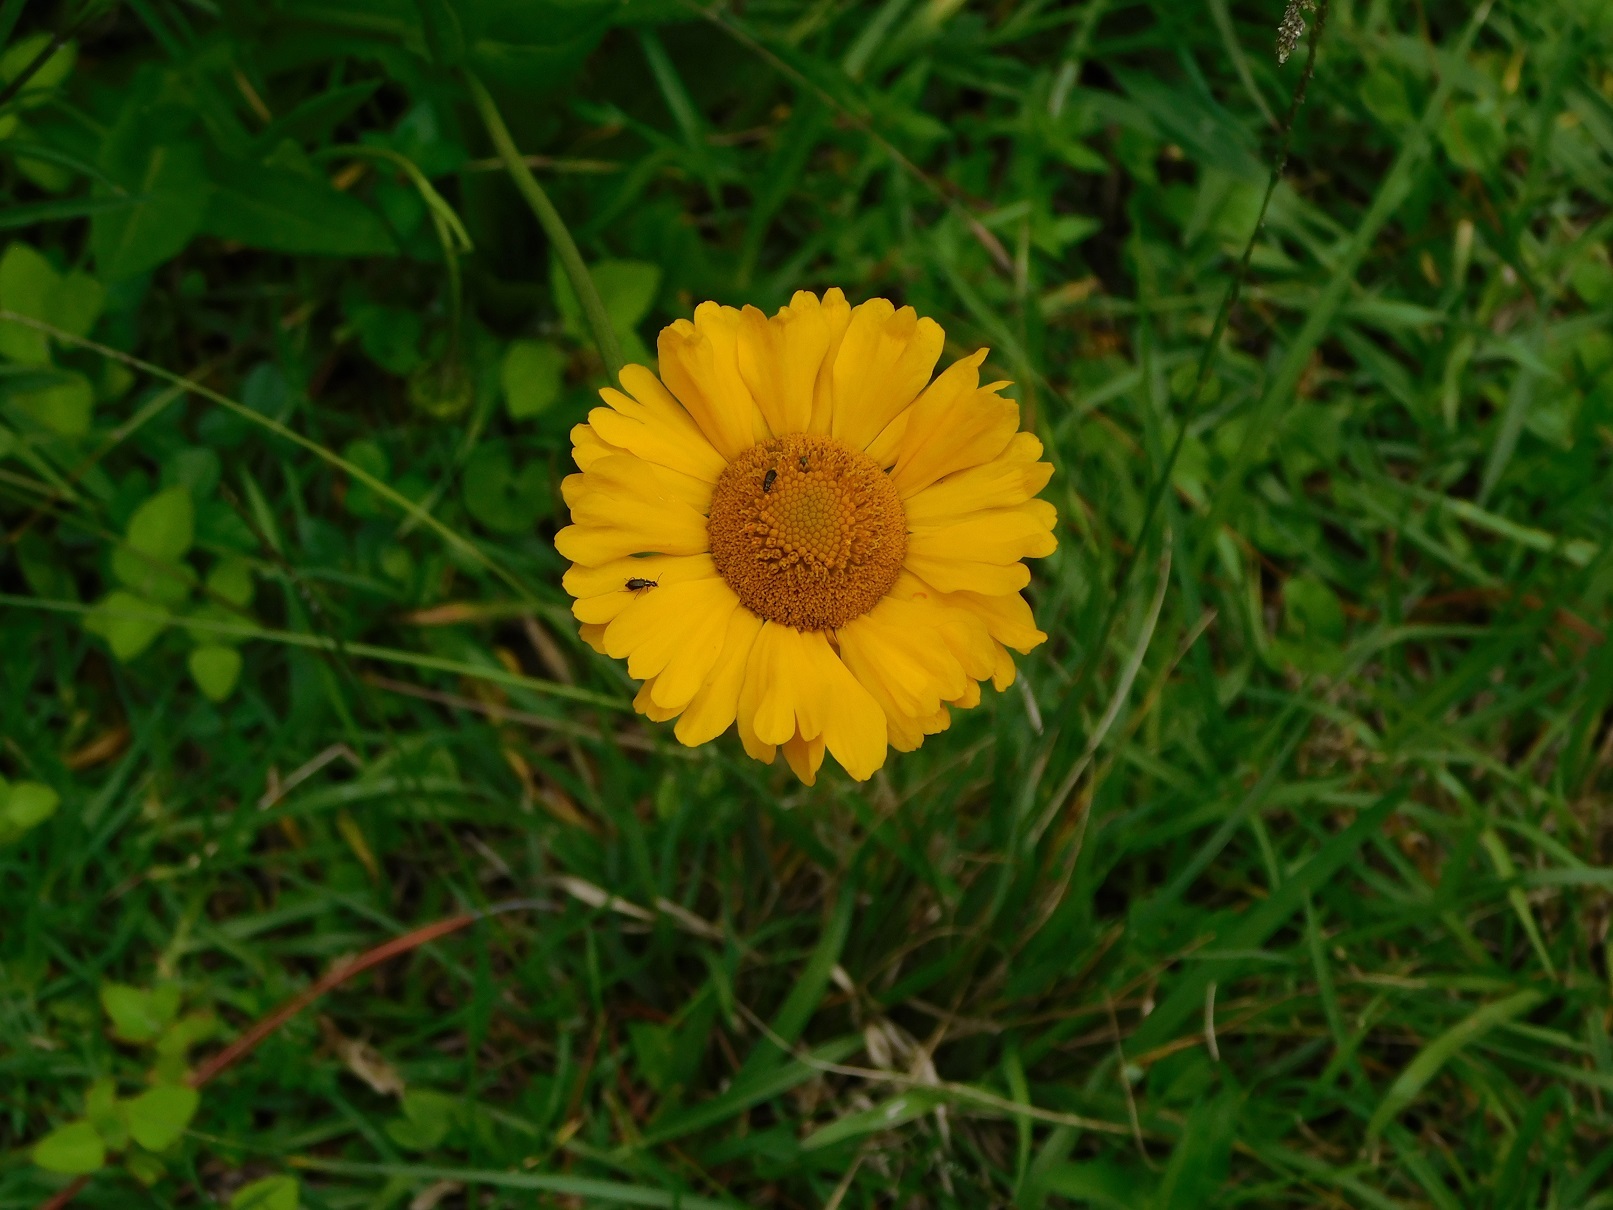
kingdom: Plantae
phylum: Tracheophyta
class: Magnoliopsida
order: Asterales
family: Asteraceae
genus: Helenium
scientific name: Helenium scorzonerifolium
